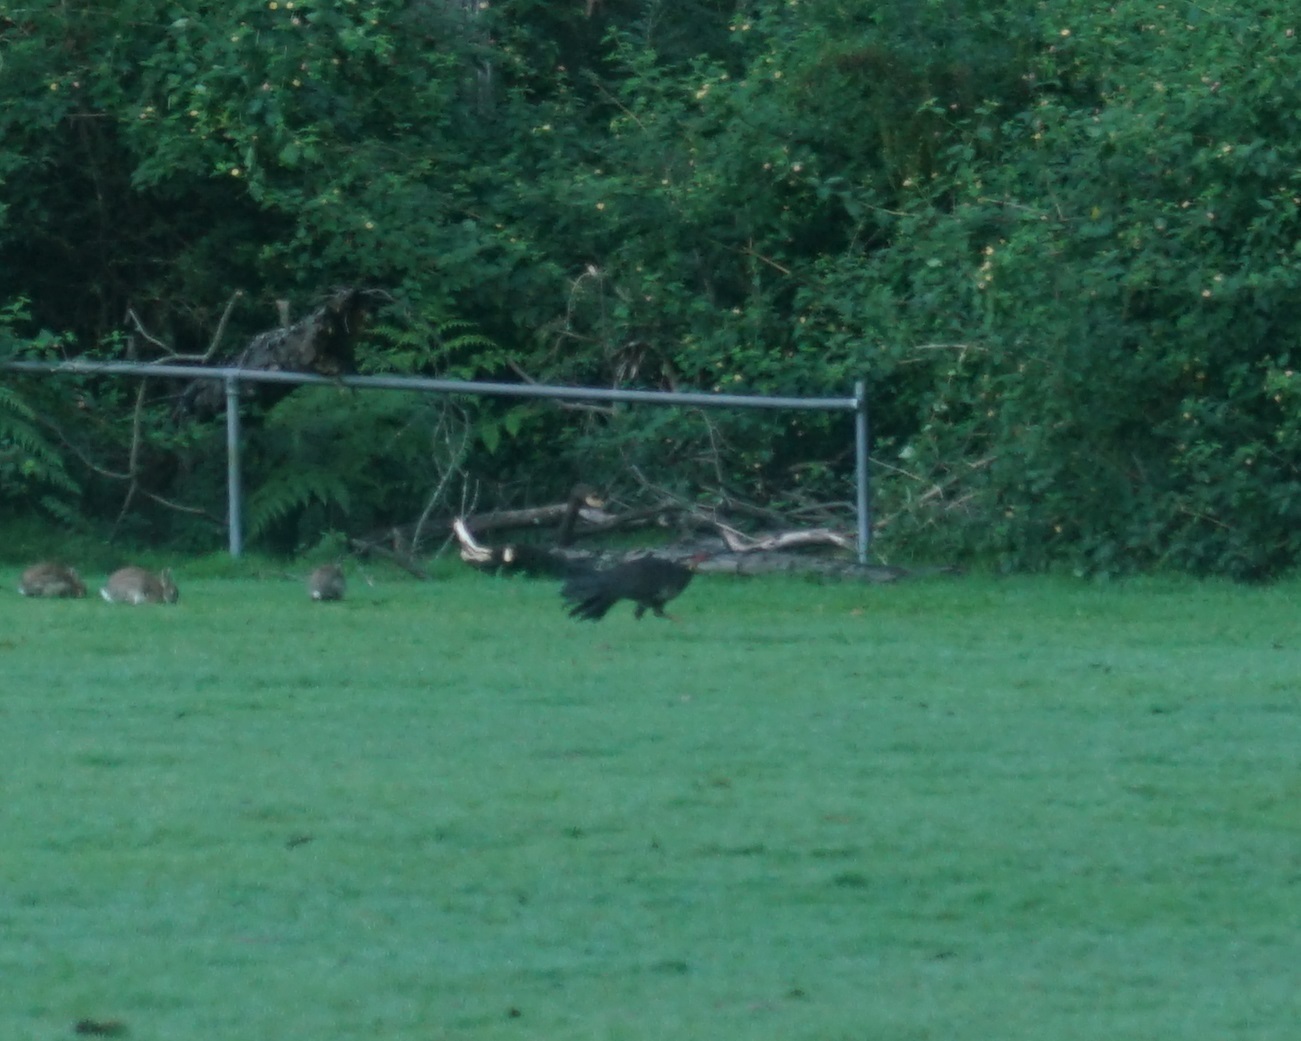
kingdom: Animalia
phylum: Chordata
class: Aves
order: Galliformes
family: Megapodiidae
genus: Alectura
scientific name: Alectura lathami
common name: Australian brushturkey
